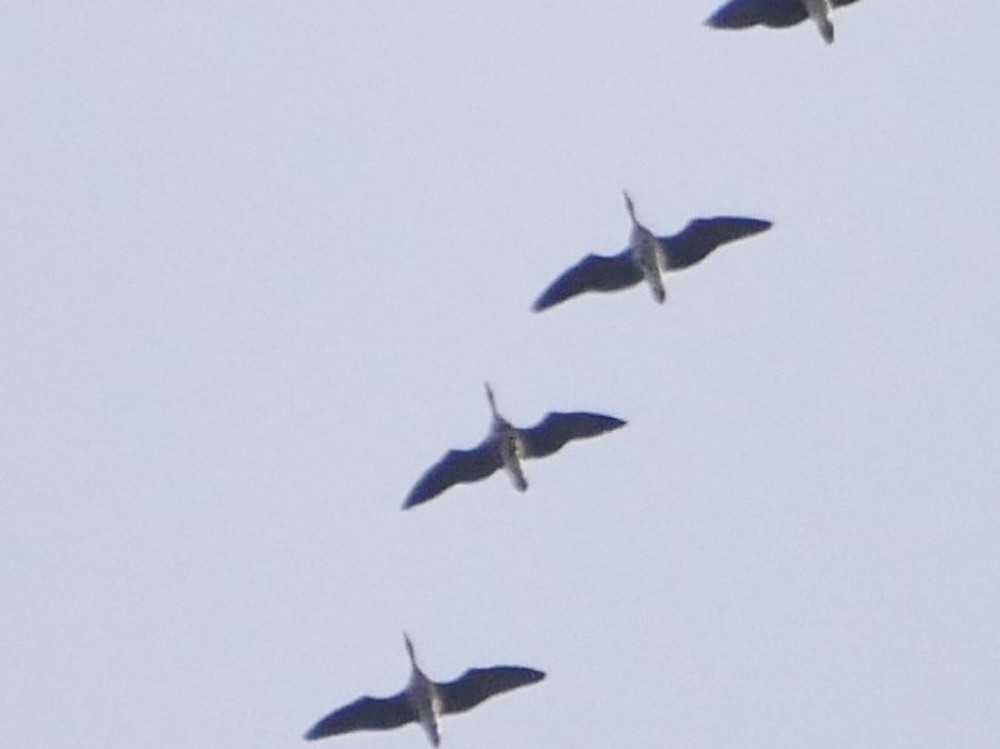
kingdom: Animalia
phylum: Chordata
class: Aves
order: Anseriformes
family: Anatidae
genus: Anser
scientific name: Anser albifrons
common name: Greater white-fronted goose
